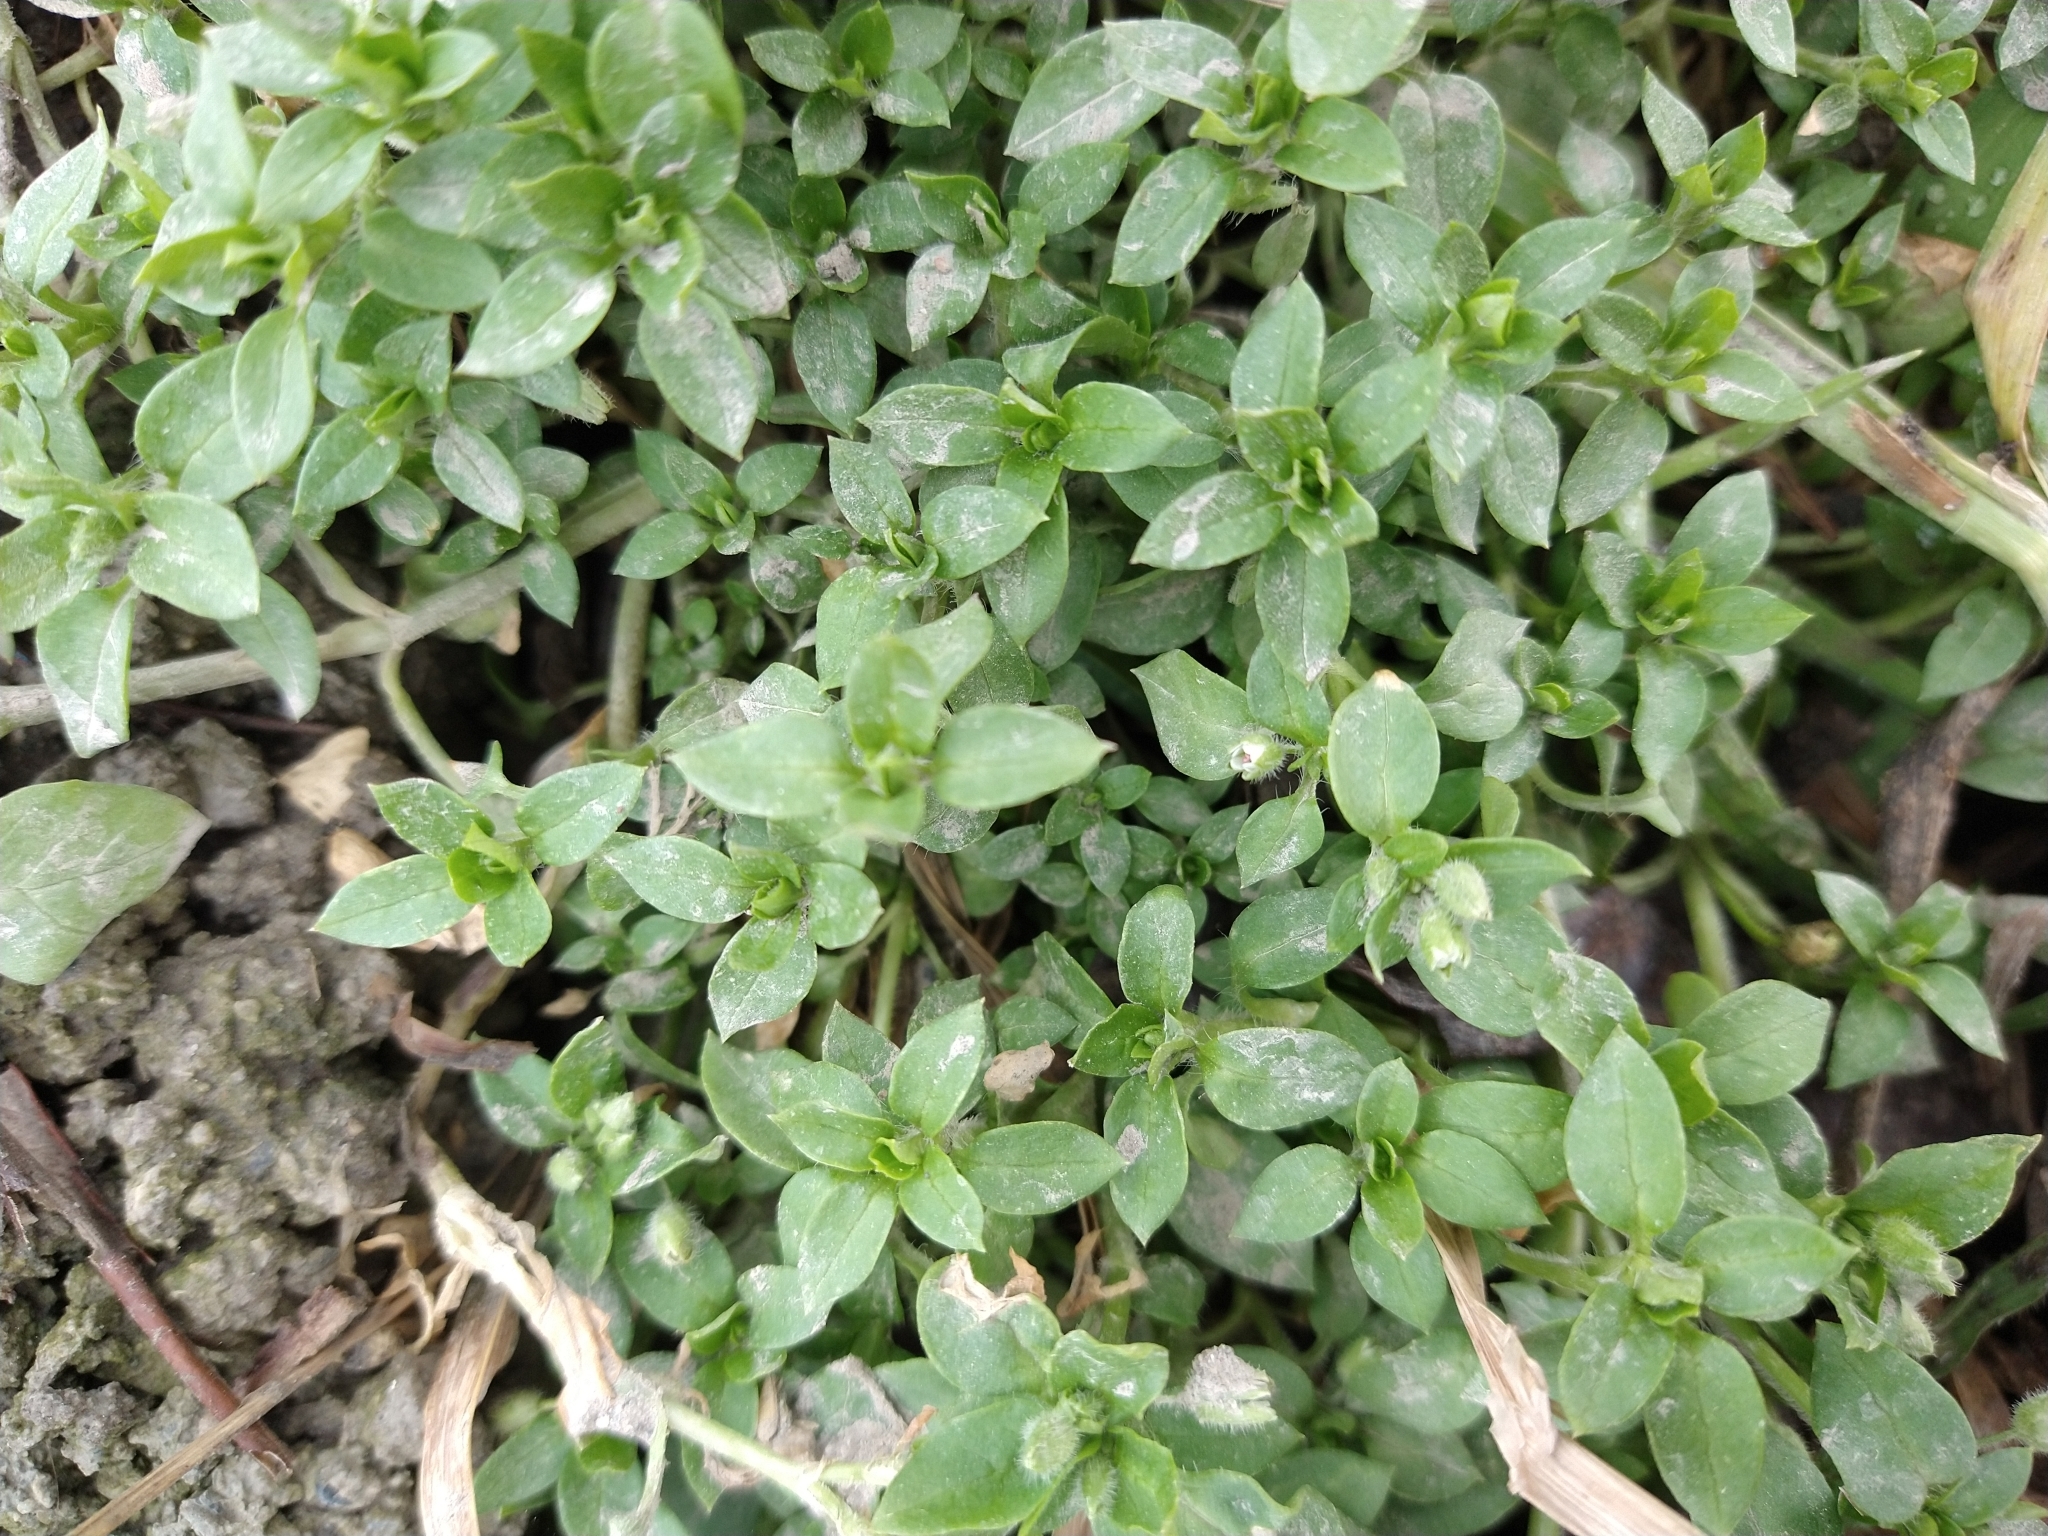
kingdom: Plantae
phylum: Tracheophyta
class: Magnoliopsida
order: Caryophyllales
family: Caryophyllaceae
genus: Stellaria
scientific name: Stellaria media
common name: Common chickweed
